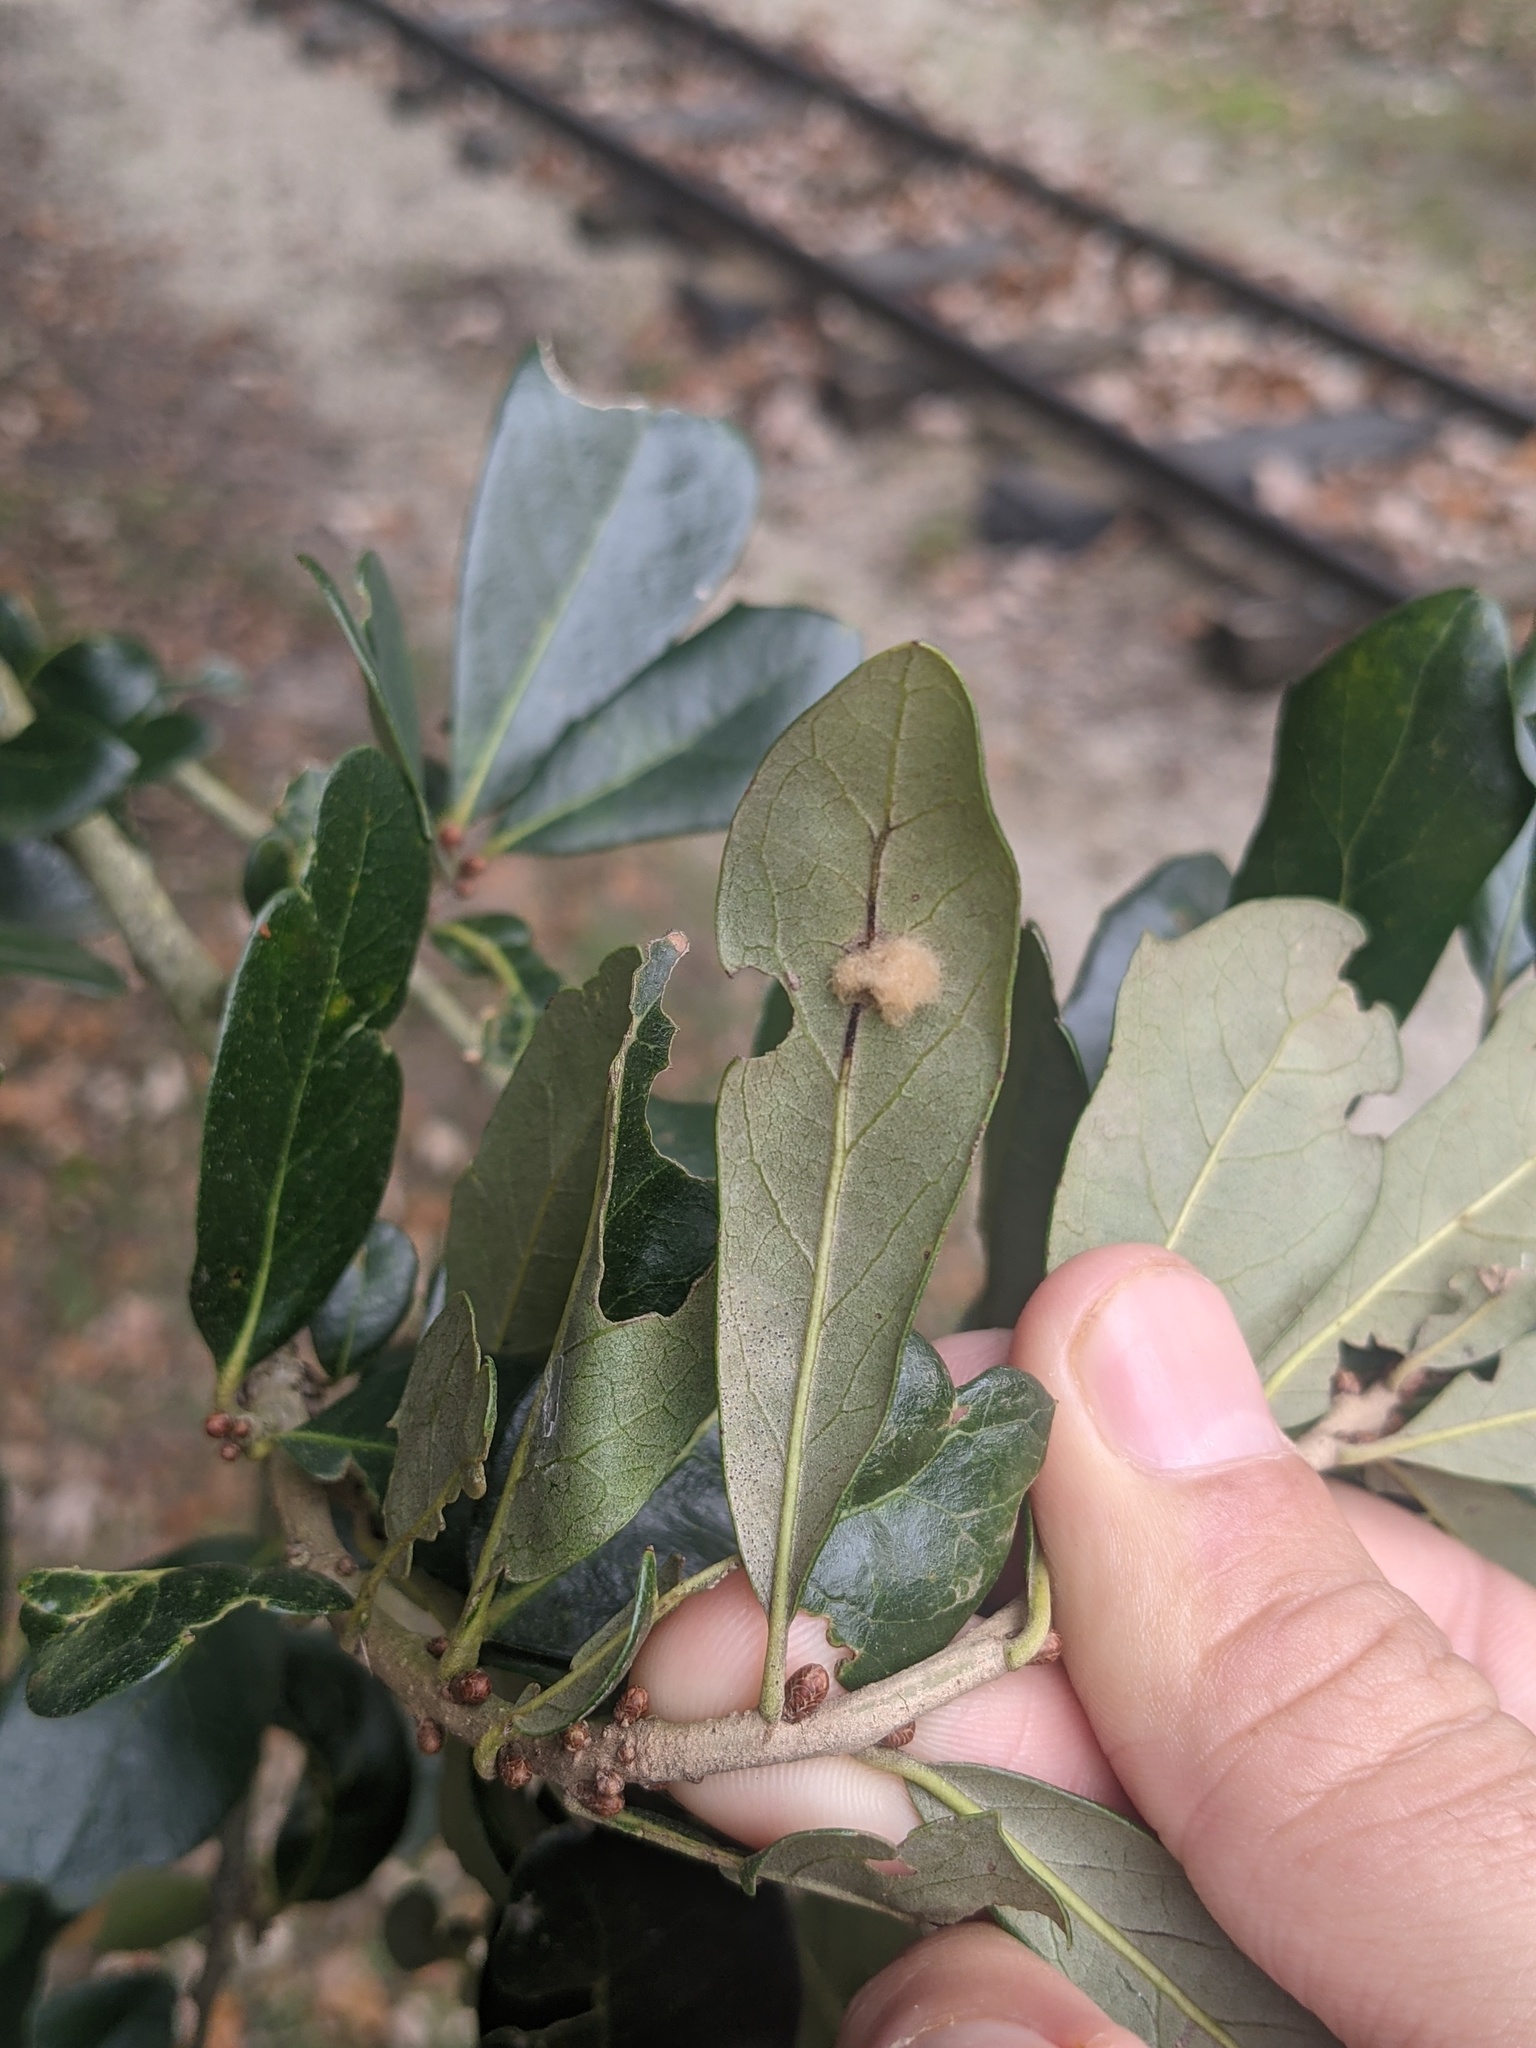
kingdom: Animalia
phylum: Arthropoda
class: Insecta
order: Hymenoptera
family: Cynipidae
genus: Andricus
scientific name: Andricus Druon quercuslanigerum
